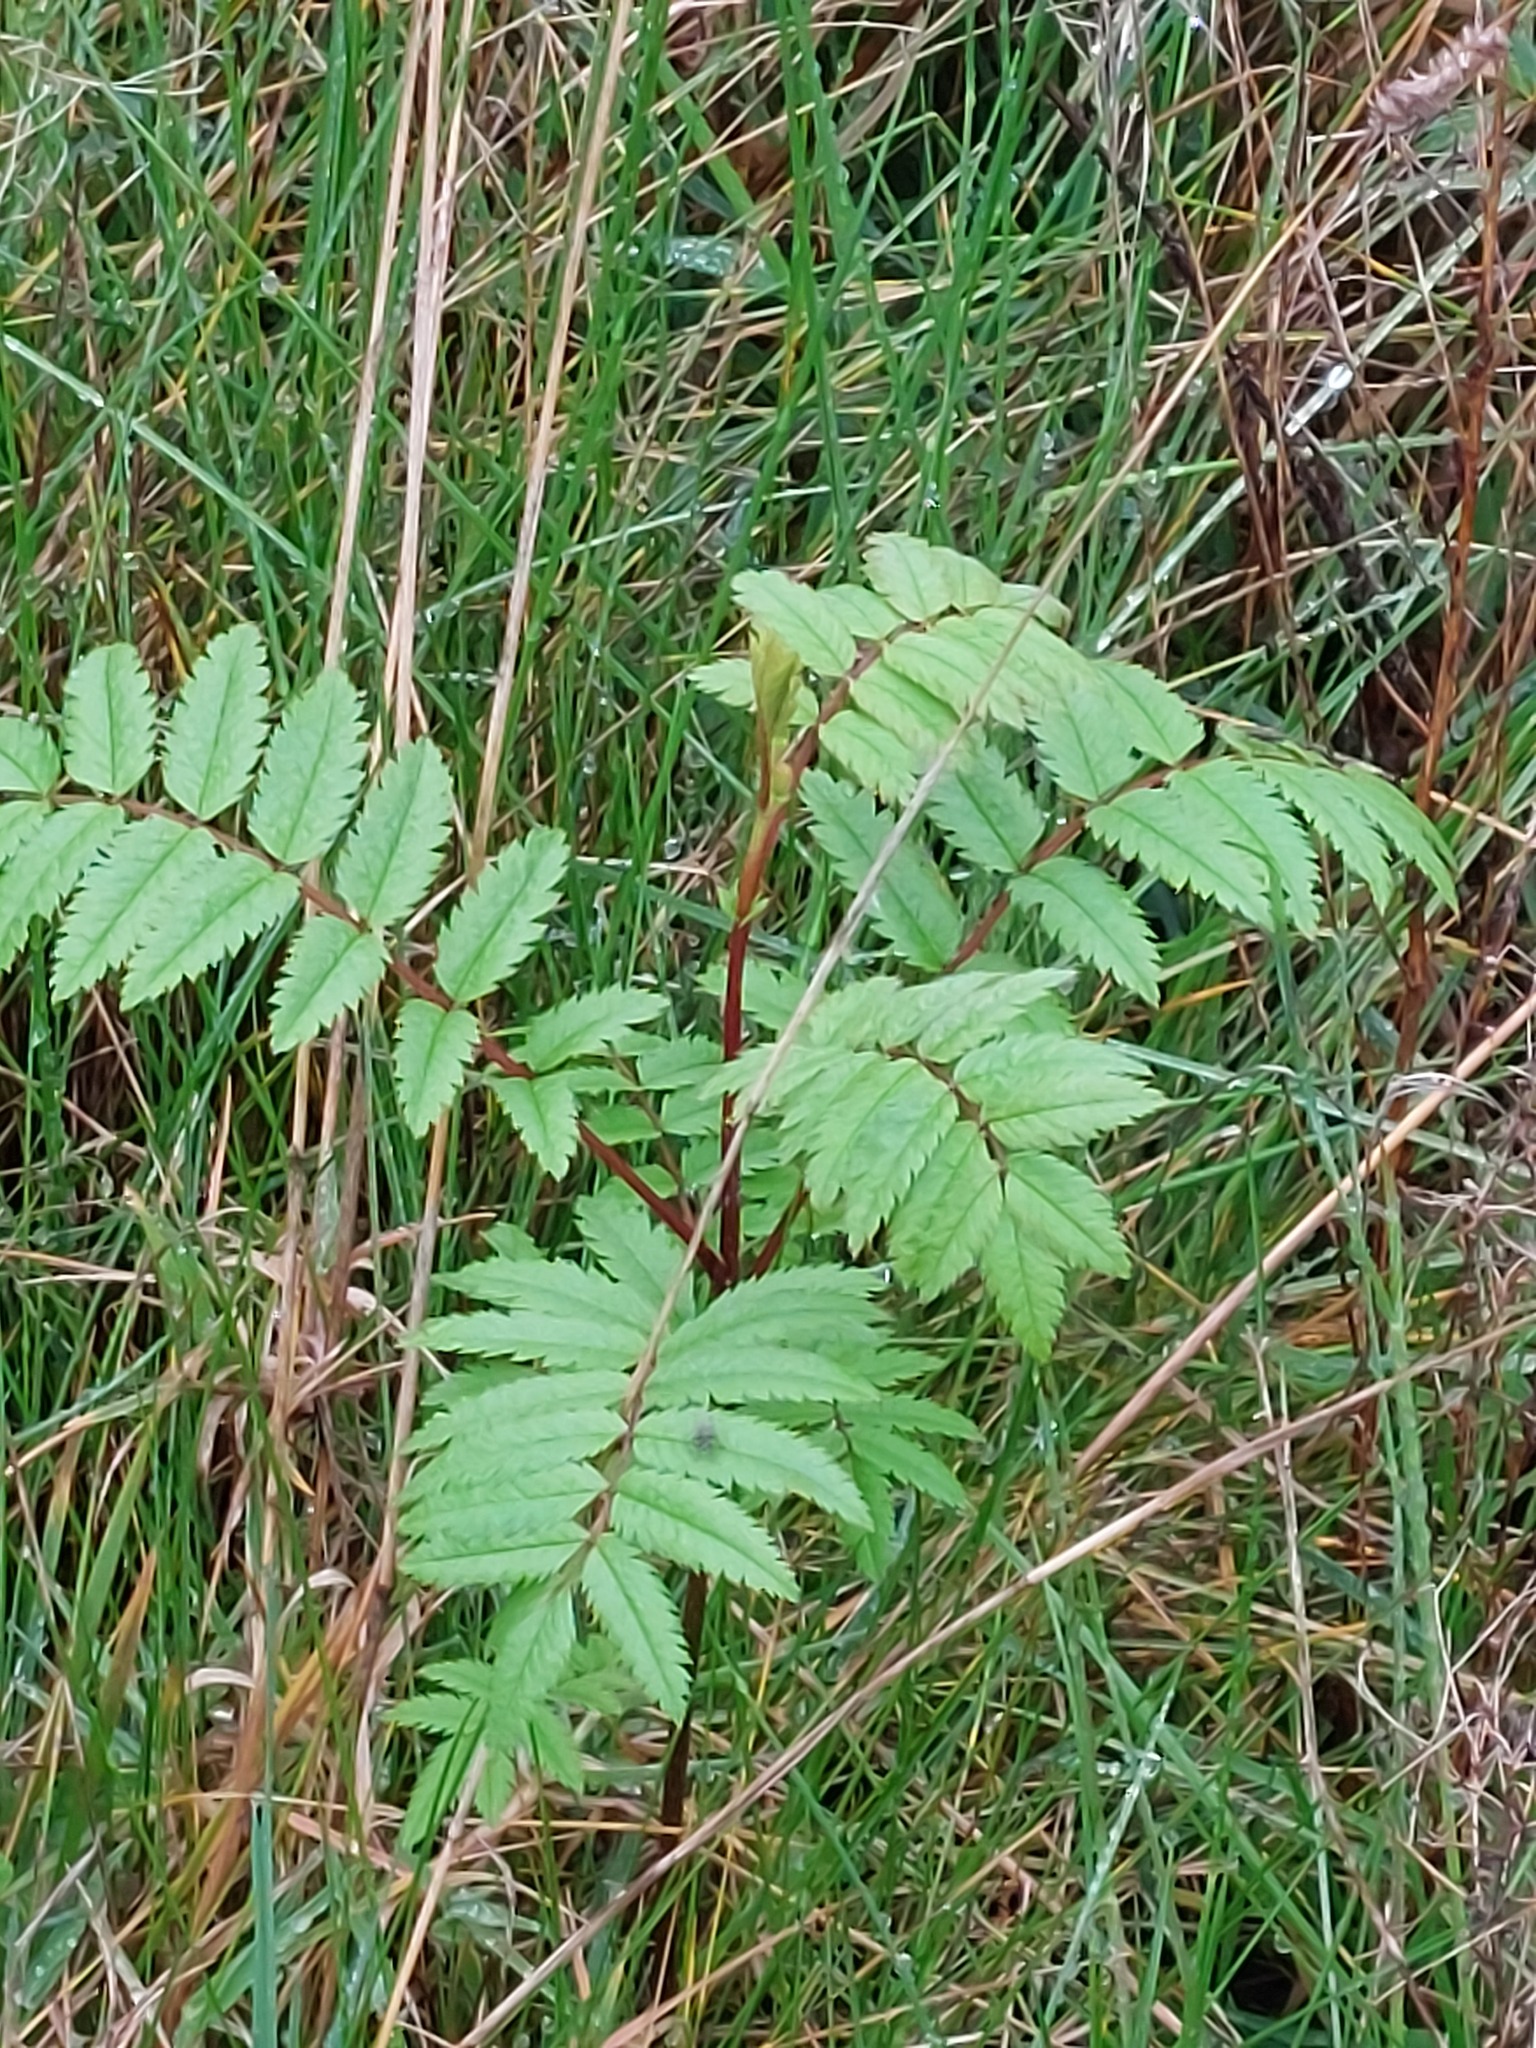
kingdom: Plantae
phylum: Tracheophyta
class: Magnoliopsida
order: Rosales
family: Rosaceae
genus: Sorbus
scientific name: Sorbus aucuparia
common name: Rowan
